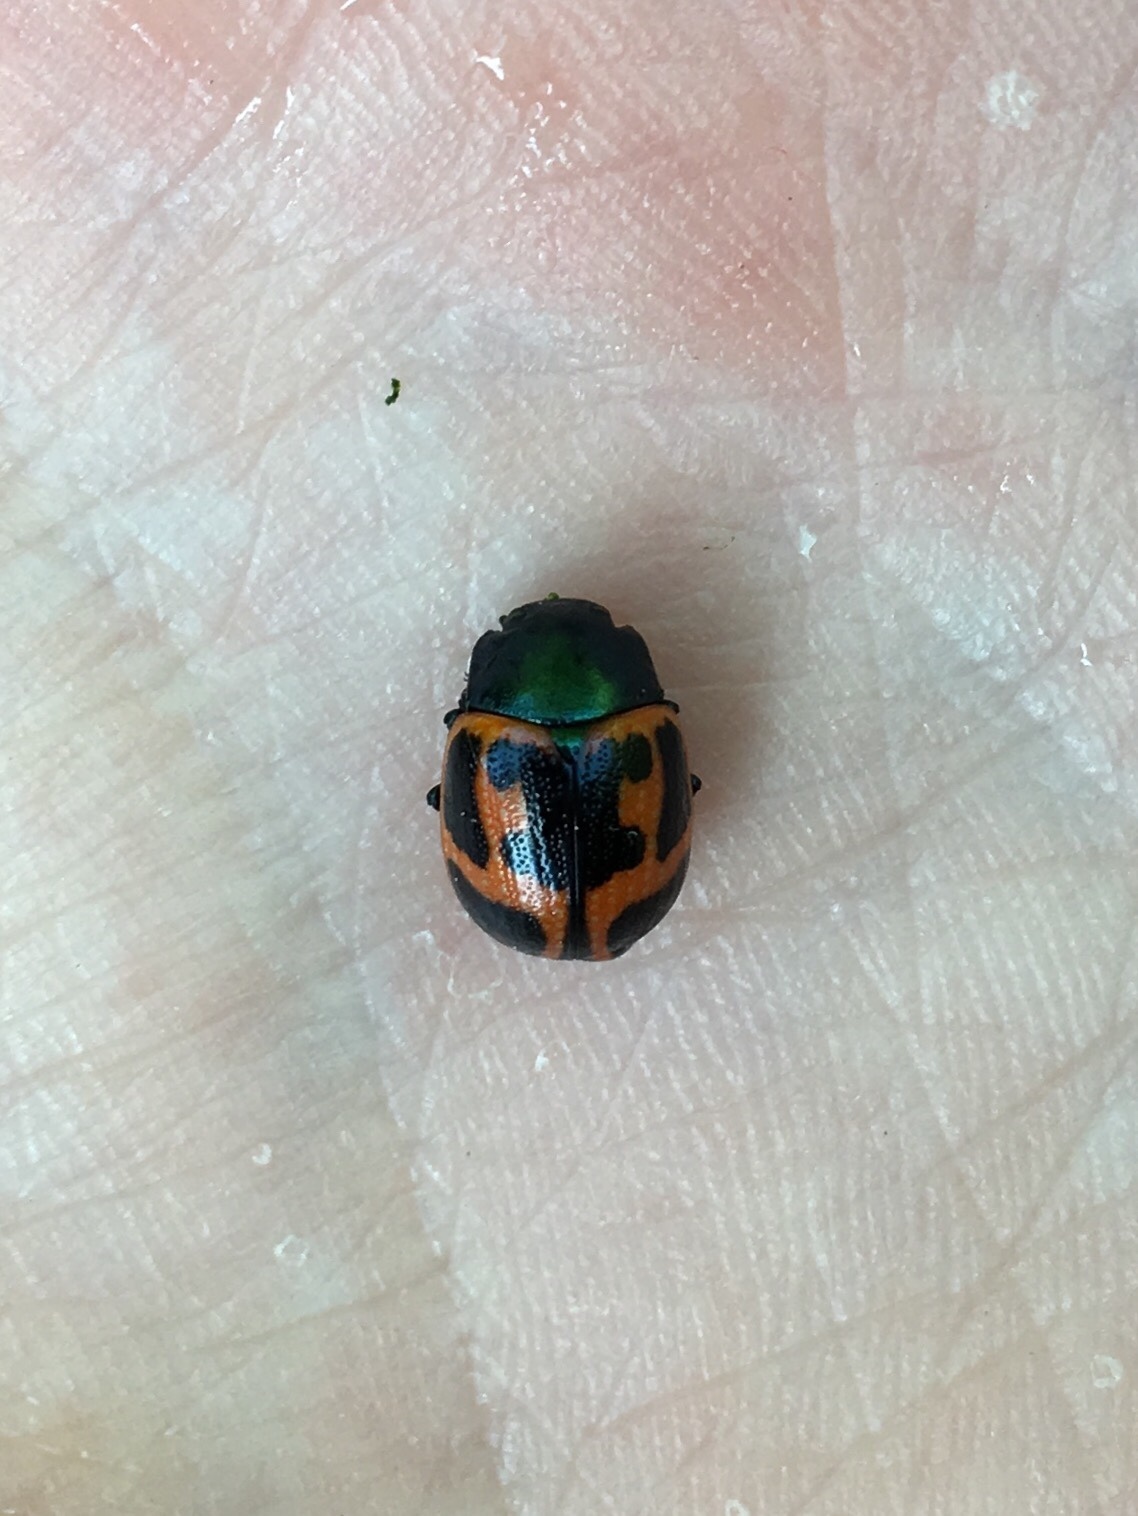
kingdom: Animalia
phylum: Arthropoda
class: Insecta
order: Coleoptera
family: Chrysomelidae
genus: Labidomera
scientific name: Labidomera clivicollis
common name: Swamp milkweed leaf beetle
